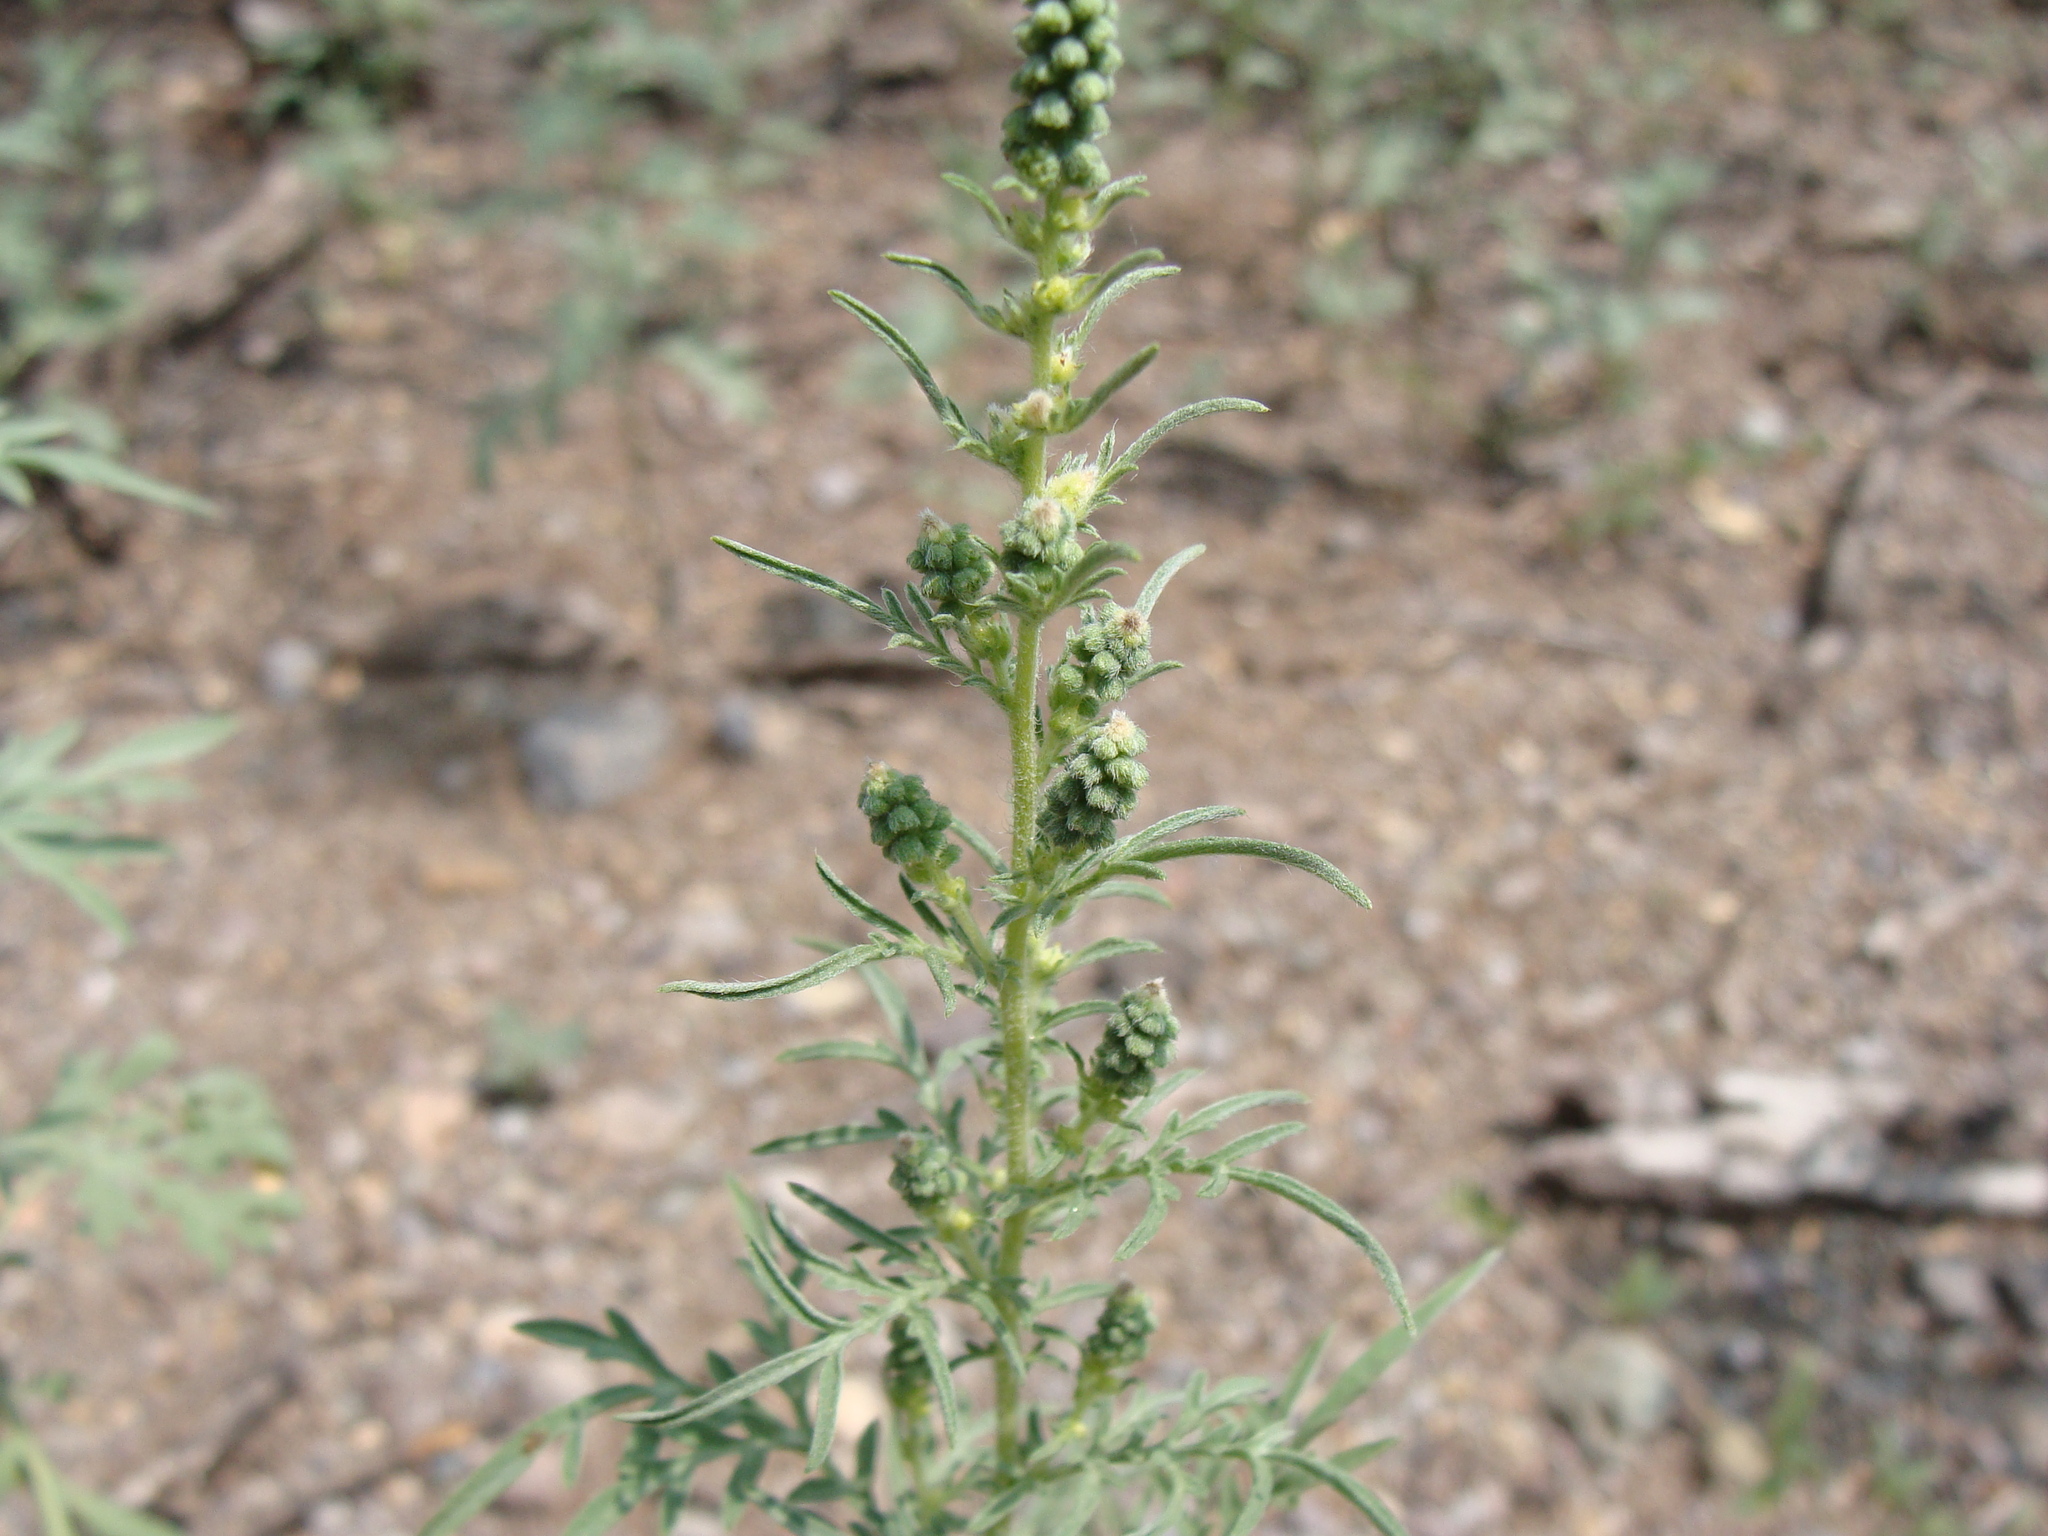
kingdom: Plantae
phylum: Tracheophyta
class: Magnoliopsida
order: Asterales
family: Asteraceae
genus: Ambrosia
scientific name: Ambrosia psilostachya
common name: Perennial ragweed
